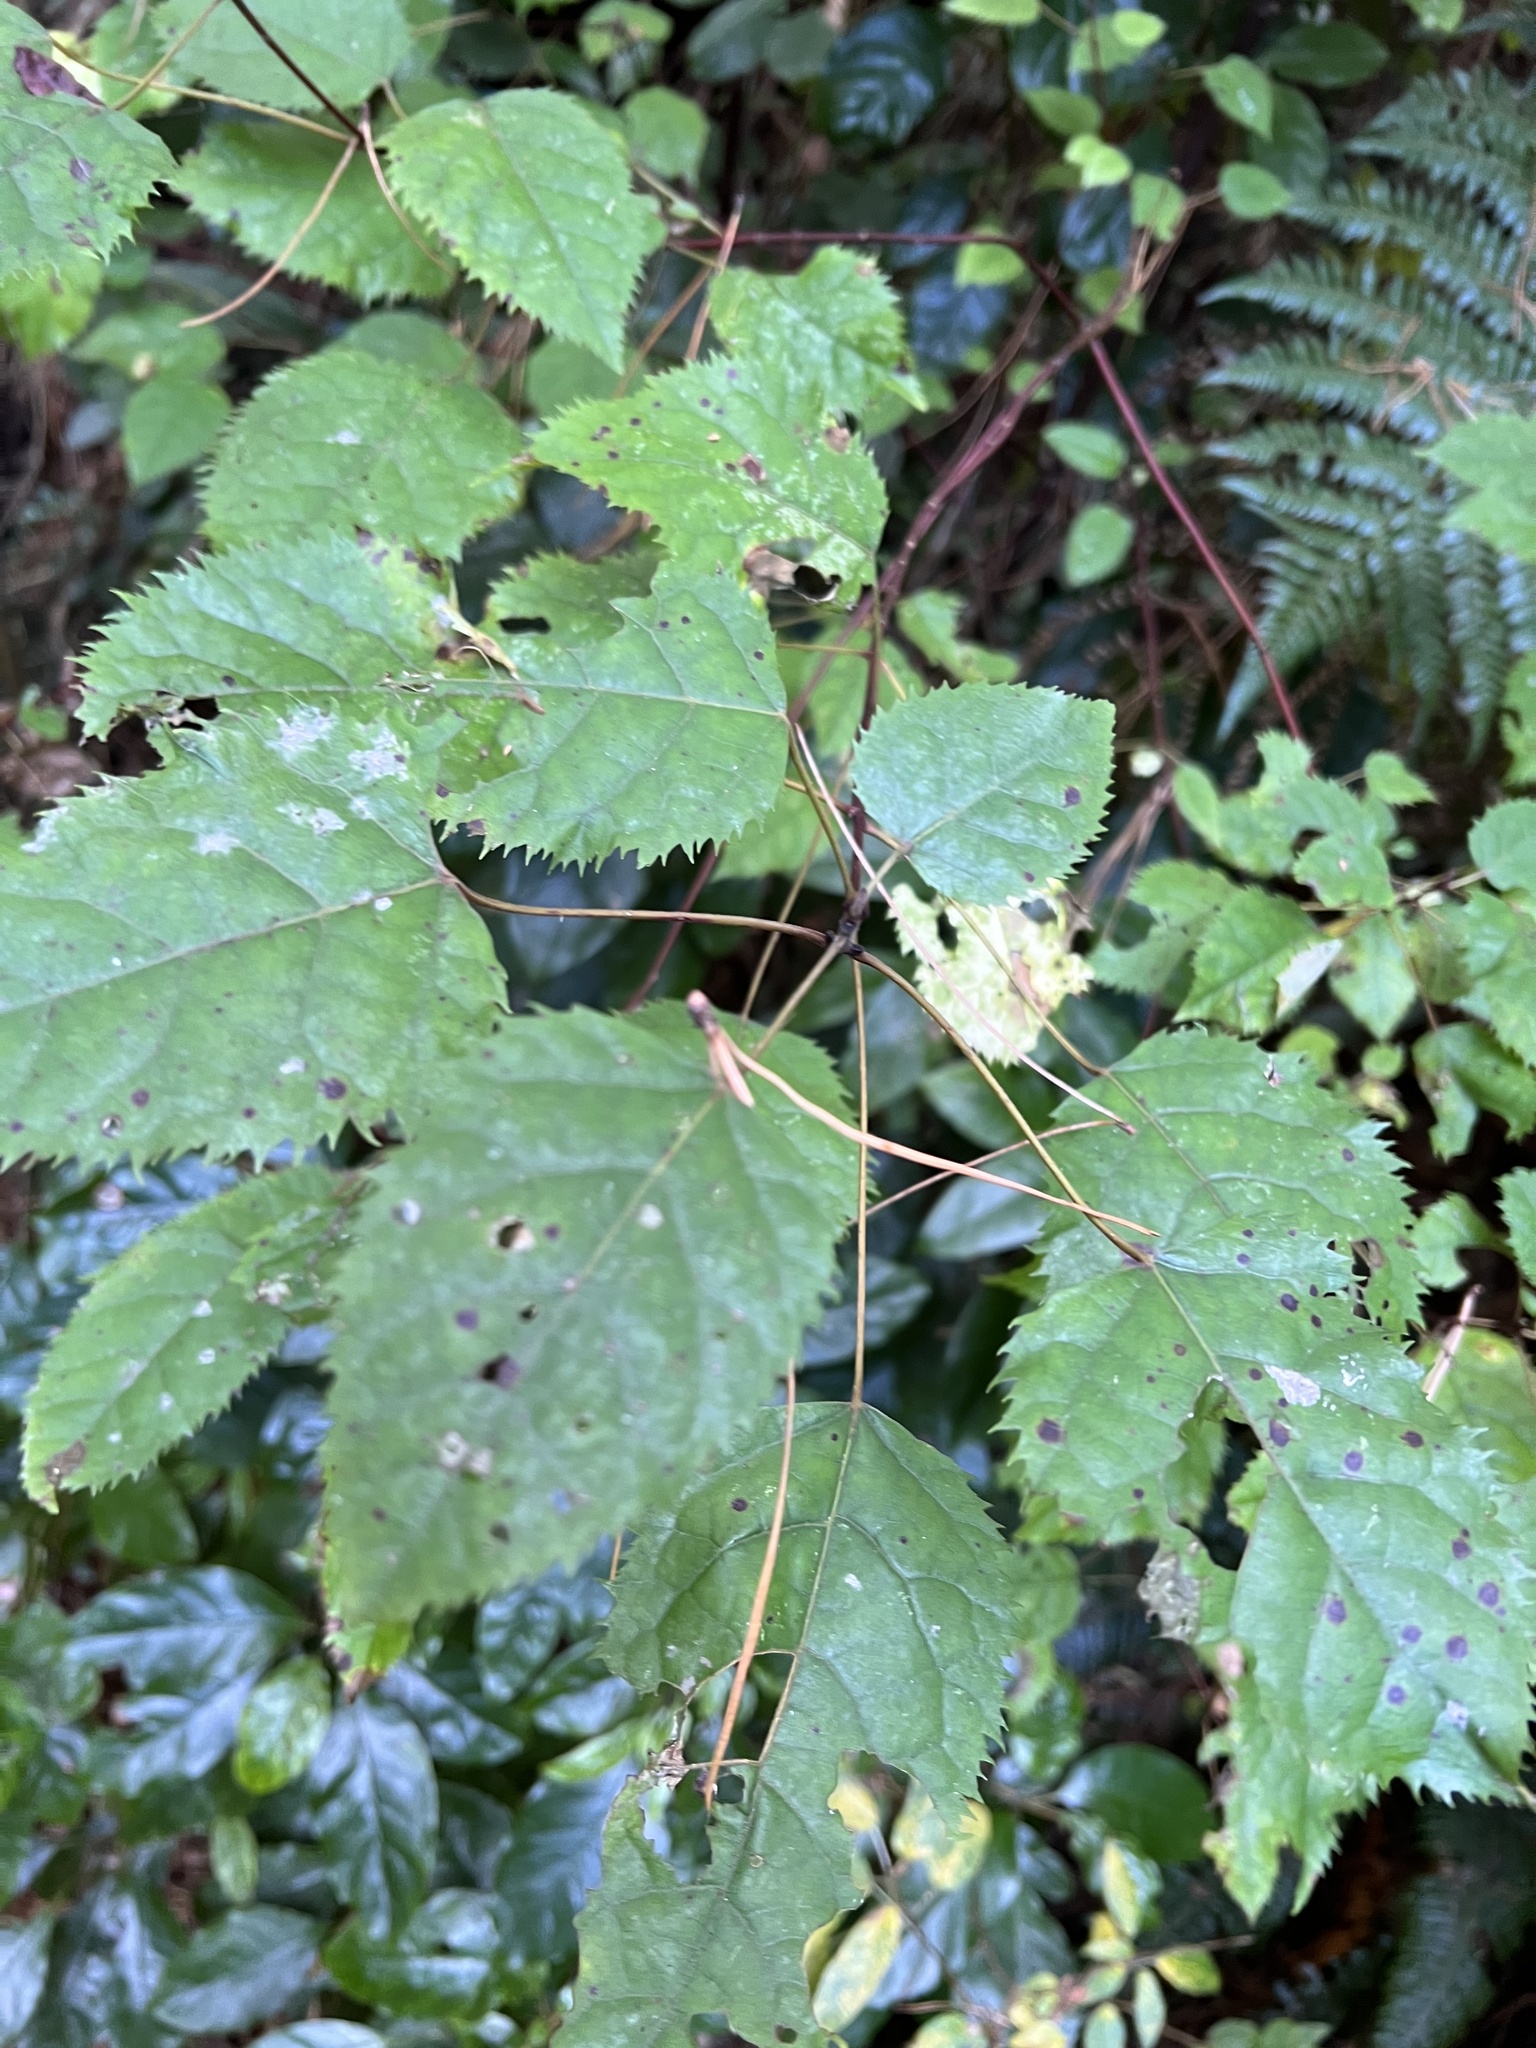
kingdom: Plantae
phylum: Tracheophyta
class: Magnoliopsida
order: Oxalidales
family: Elaeocarpaceae
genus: Aristotelia
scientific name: Aristotelia serrata
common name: New zealand wineberry
